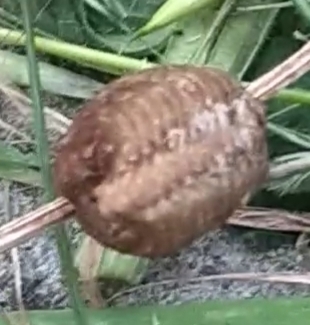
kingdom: Animalia
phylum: Arthropoda
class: Insecta
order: Mantodea
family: Mantidae
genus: Hierodula
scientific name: Hierodula transcaucasica
